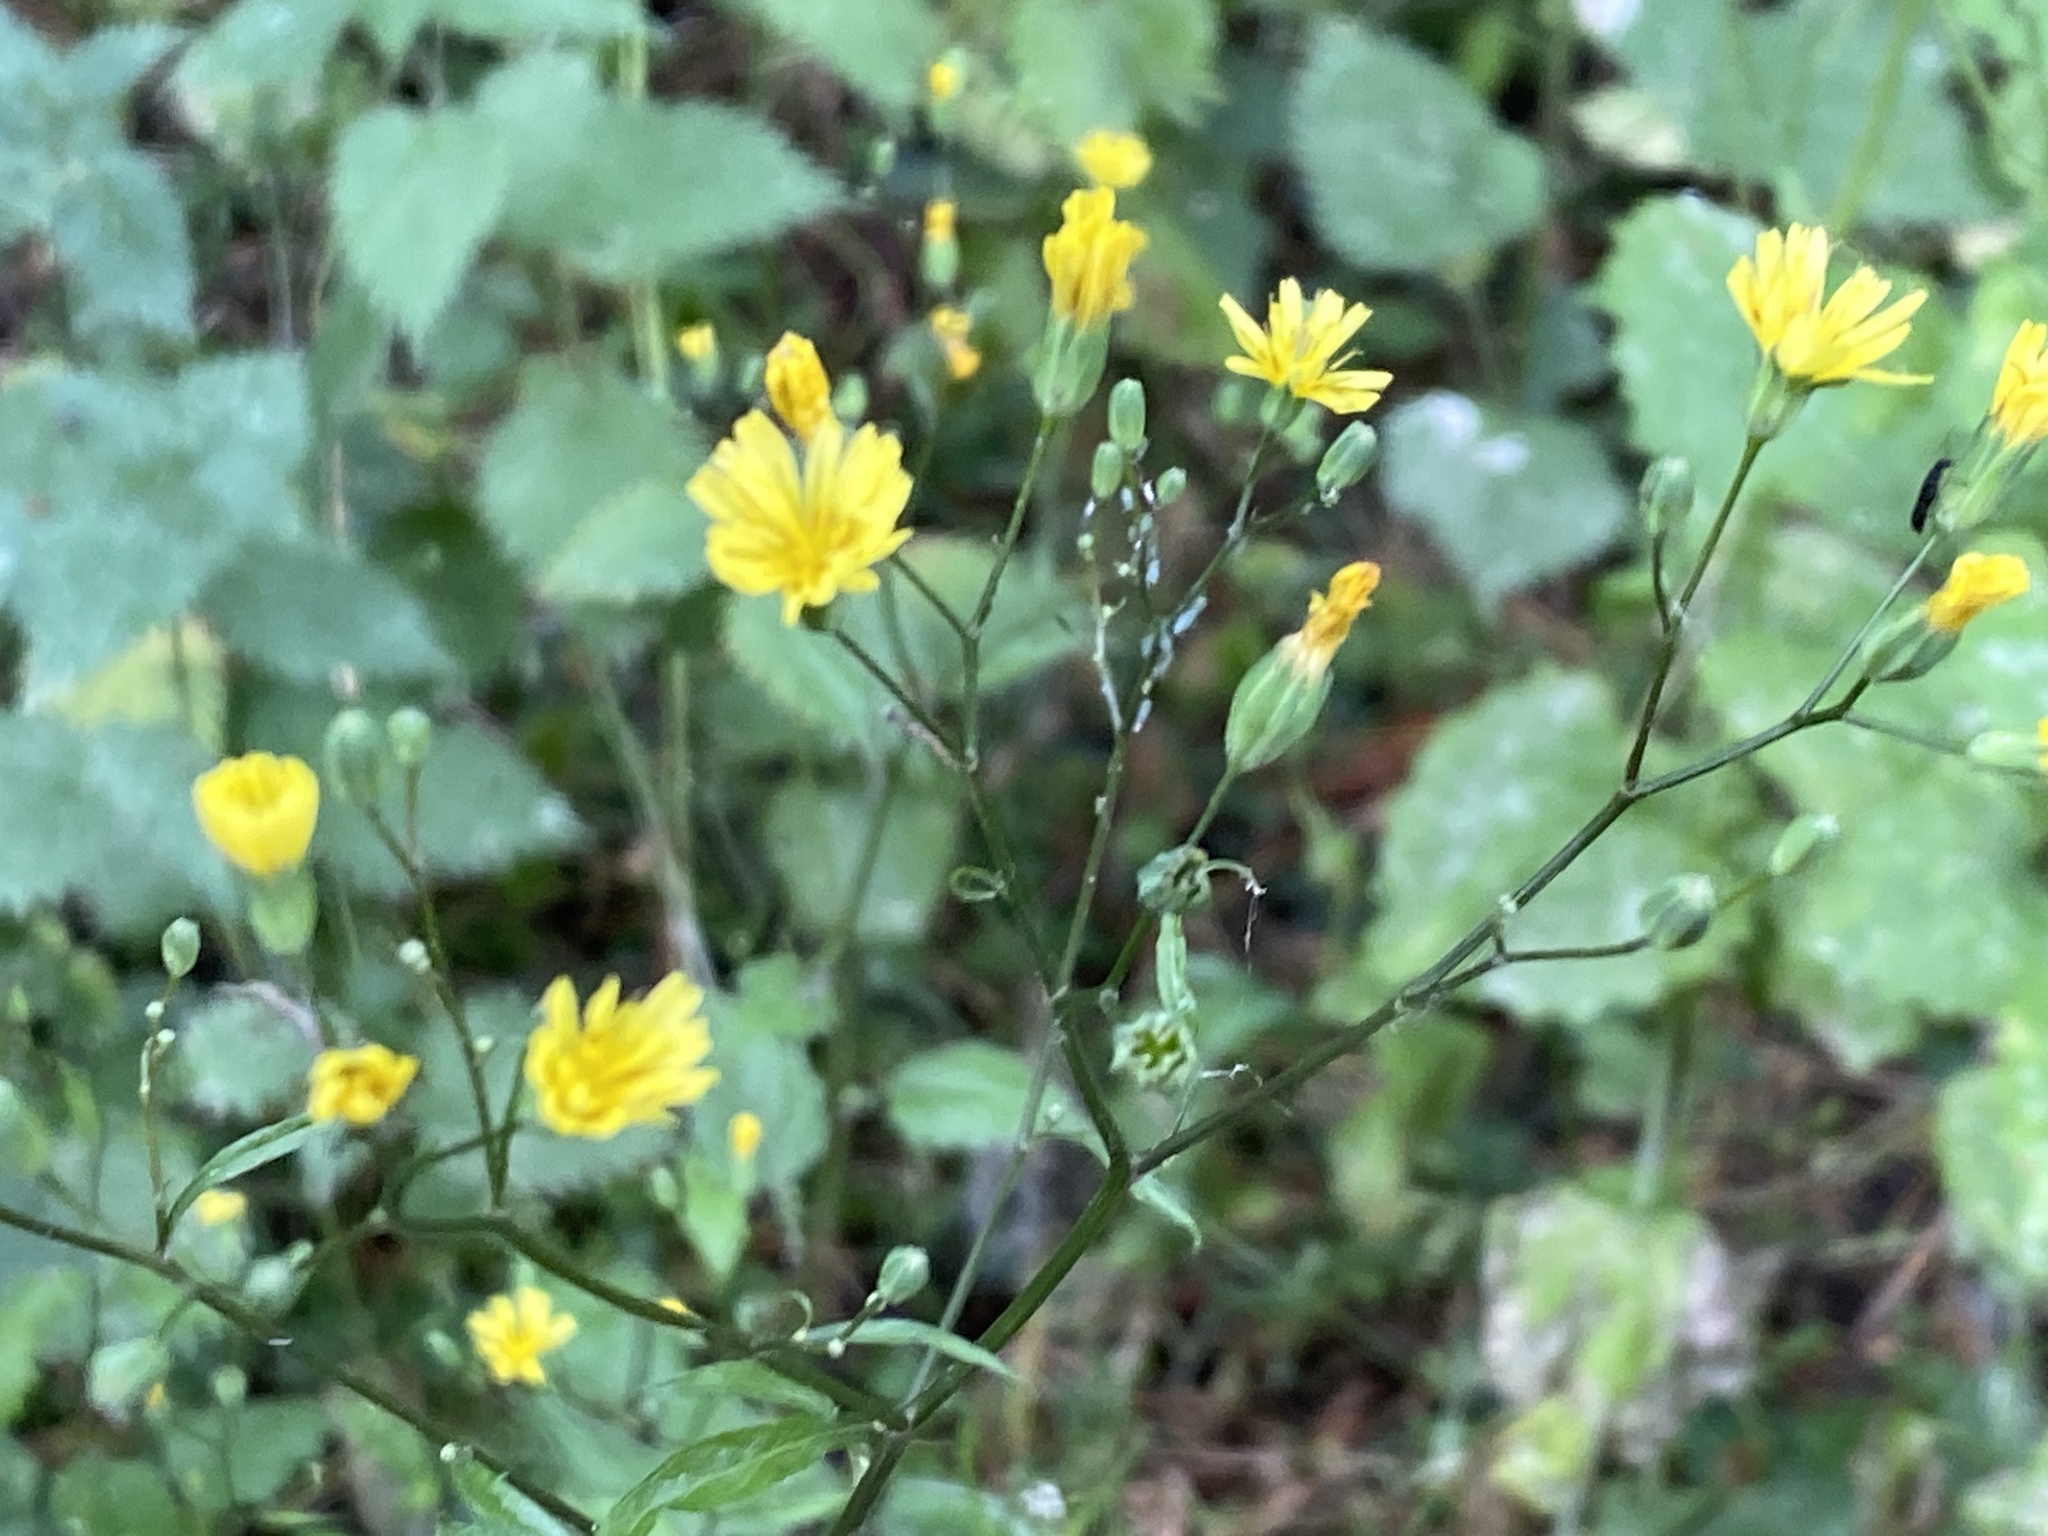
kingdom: Plantae
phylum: Tracheophyta
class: Magnoliopsida
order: Asterales
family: Asteraceae
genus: Lapsana
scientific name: Lapsana communis
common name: Nipplewort
